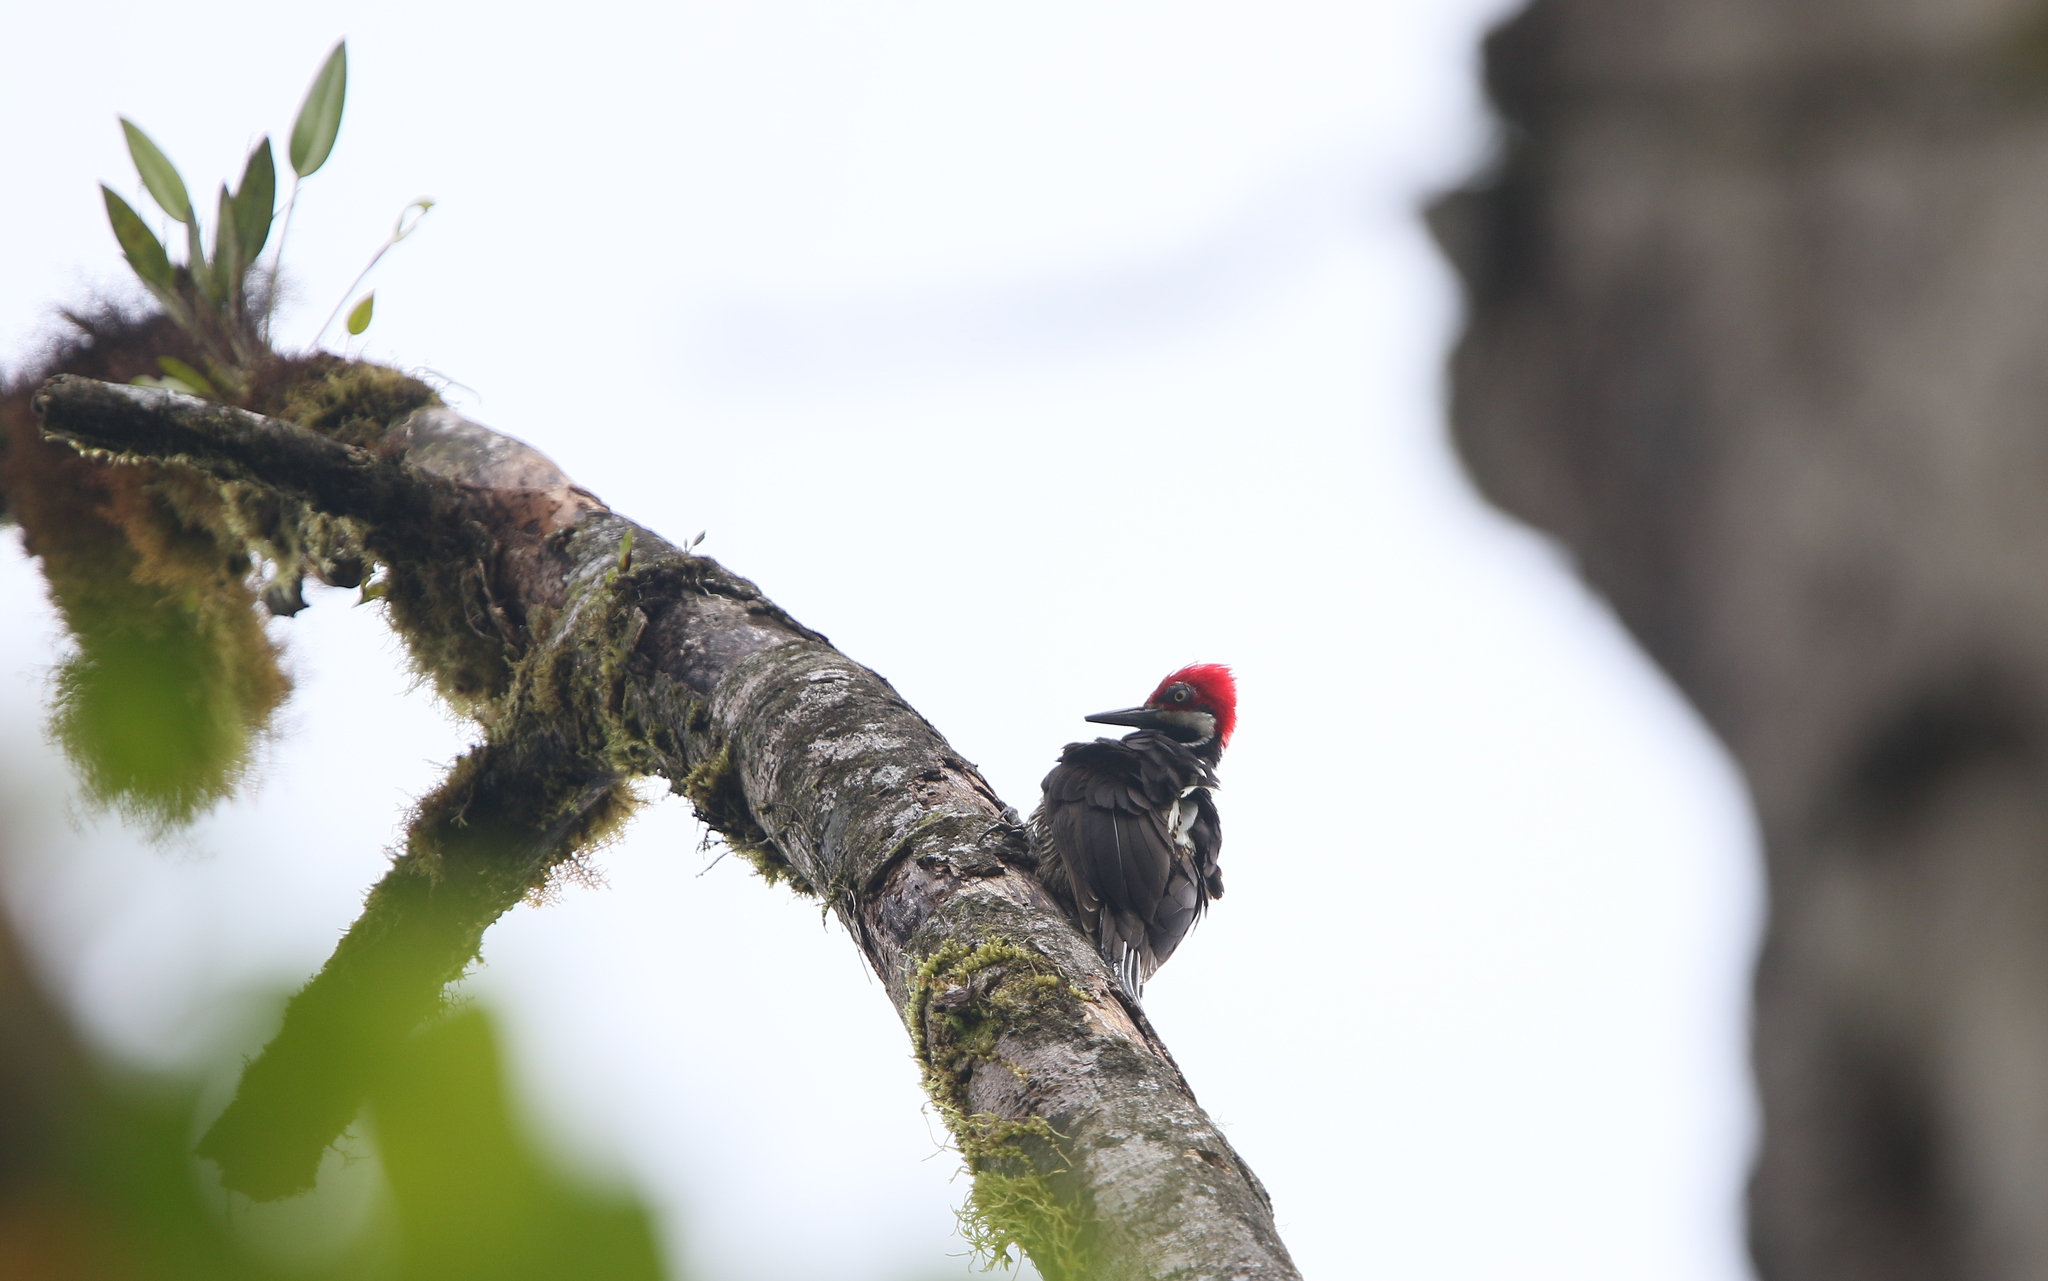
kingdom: Animalia
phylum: Chordata
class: Aves
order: Piciformes
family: Picidae
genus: Campephilus
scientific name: Campephilus gayaquilensis
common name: Guayaquil woodpecker
